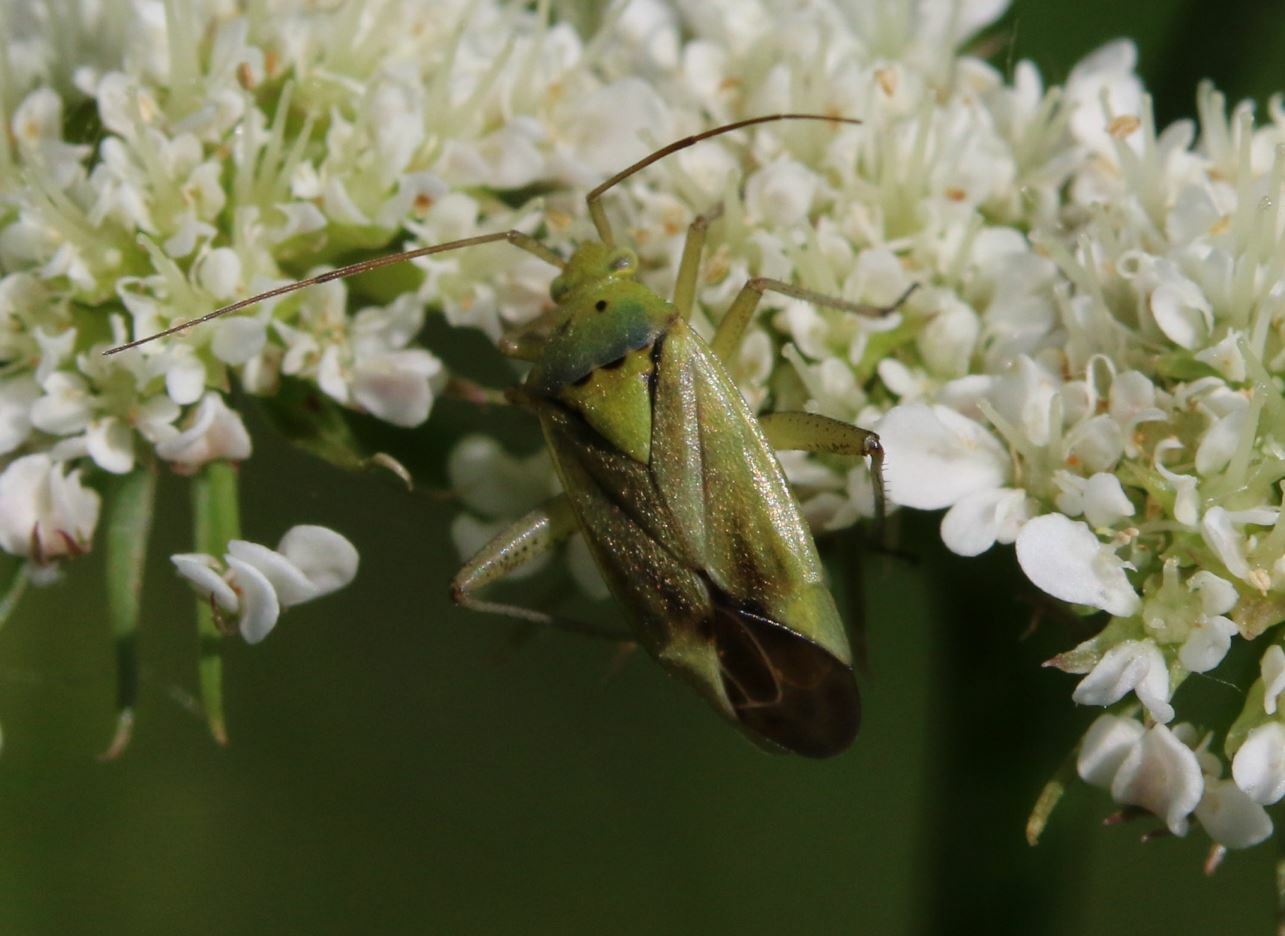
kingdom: Animalia
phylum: Arthropoda
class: Insecta
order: Hemiptera
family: Miridae
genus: Closterotomus
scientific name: Closterotomus norvegicus
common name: Plant bug
